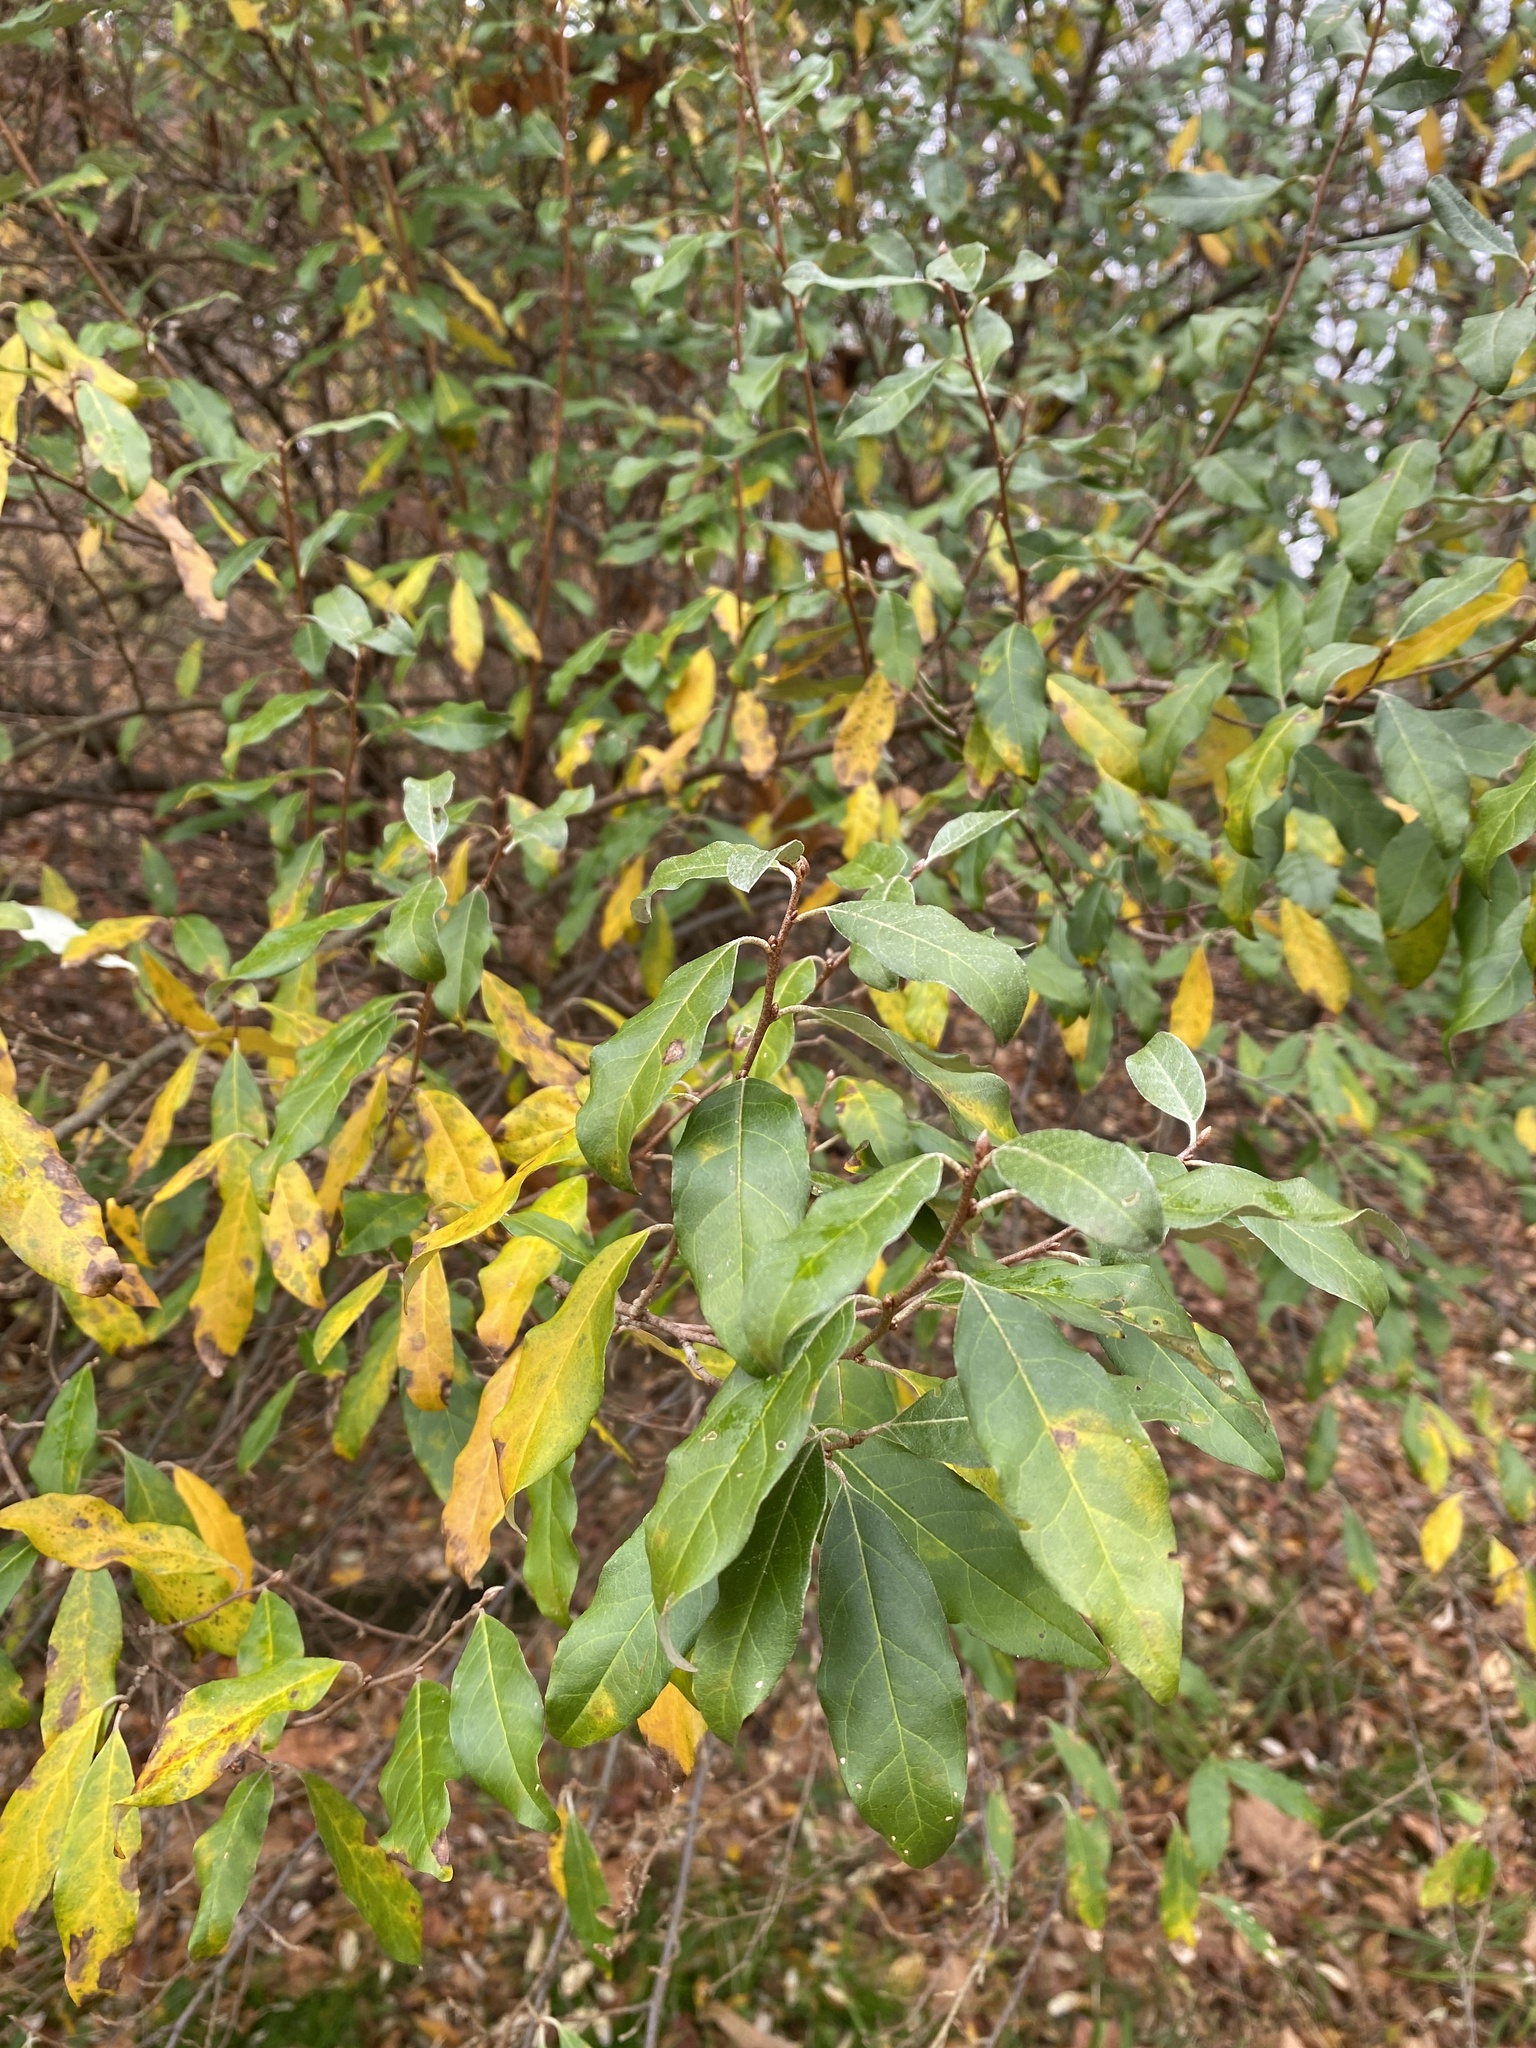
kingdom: Plantae
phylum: Tracheophyta
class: Magnoliopsida
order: Rosales
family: Elaeagnaceae
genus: Elaeagnus
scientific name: Elaeagnus umbellata
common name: Autumn olive
